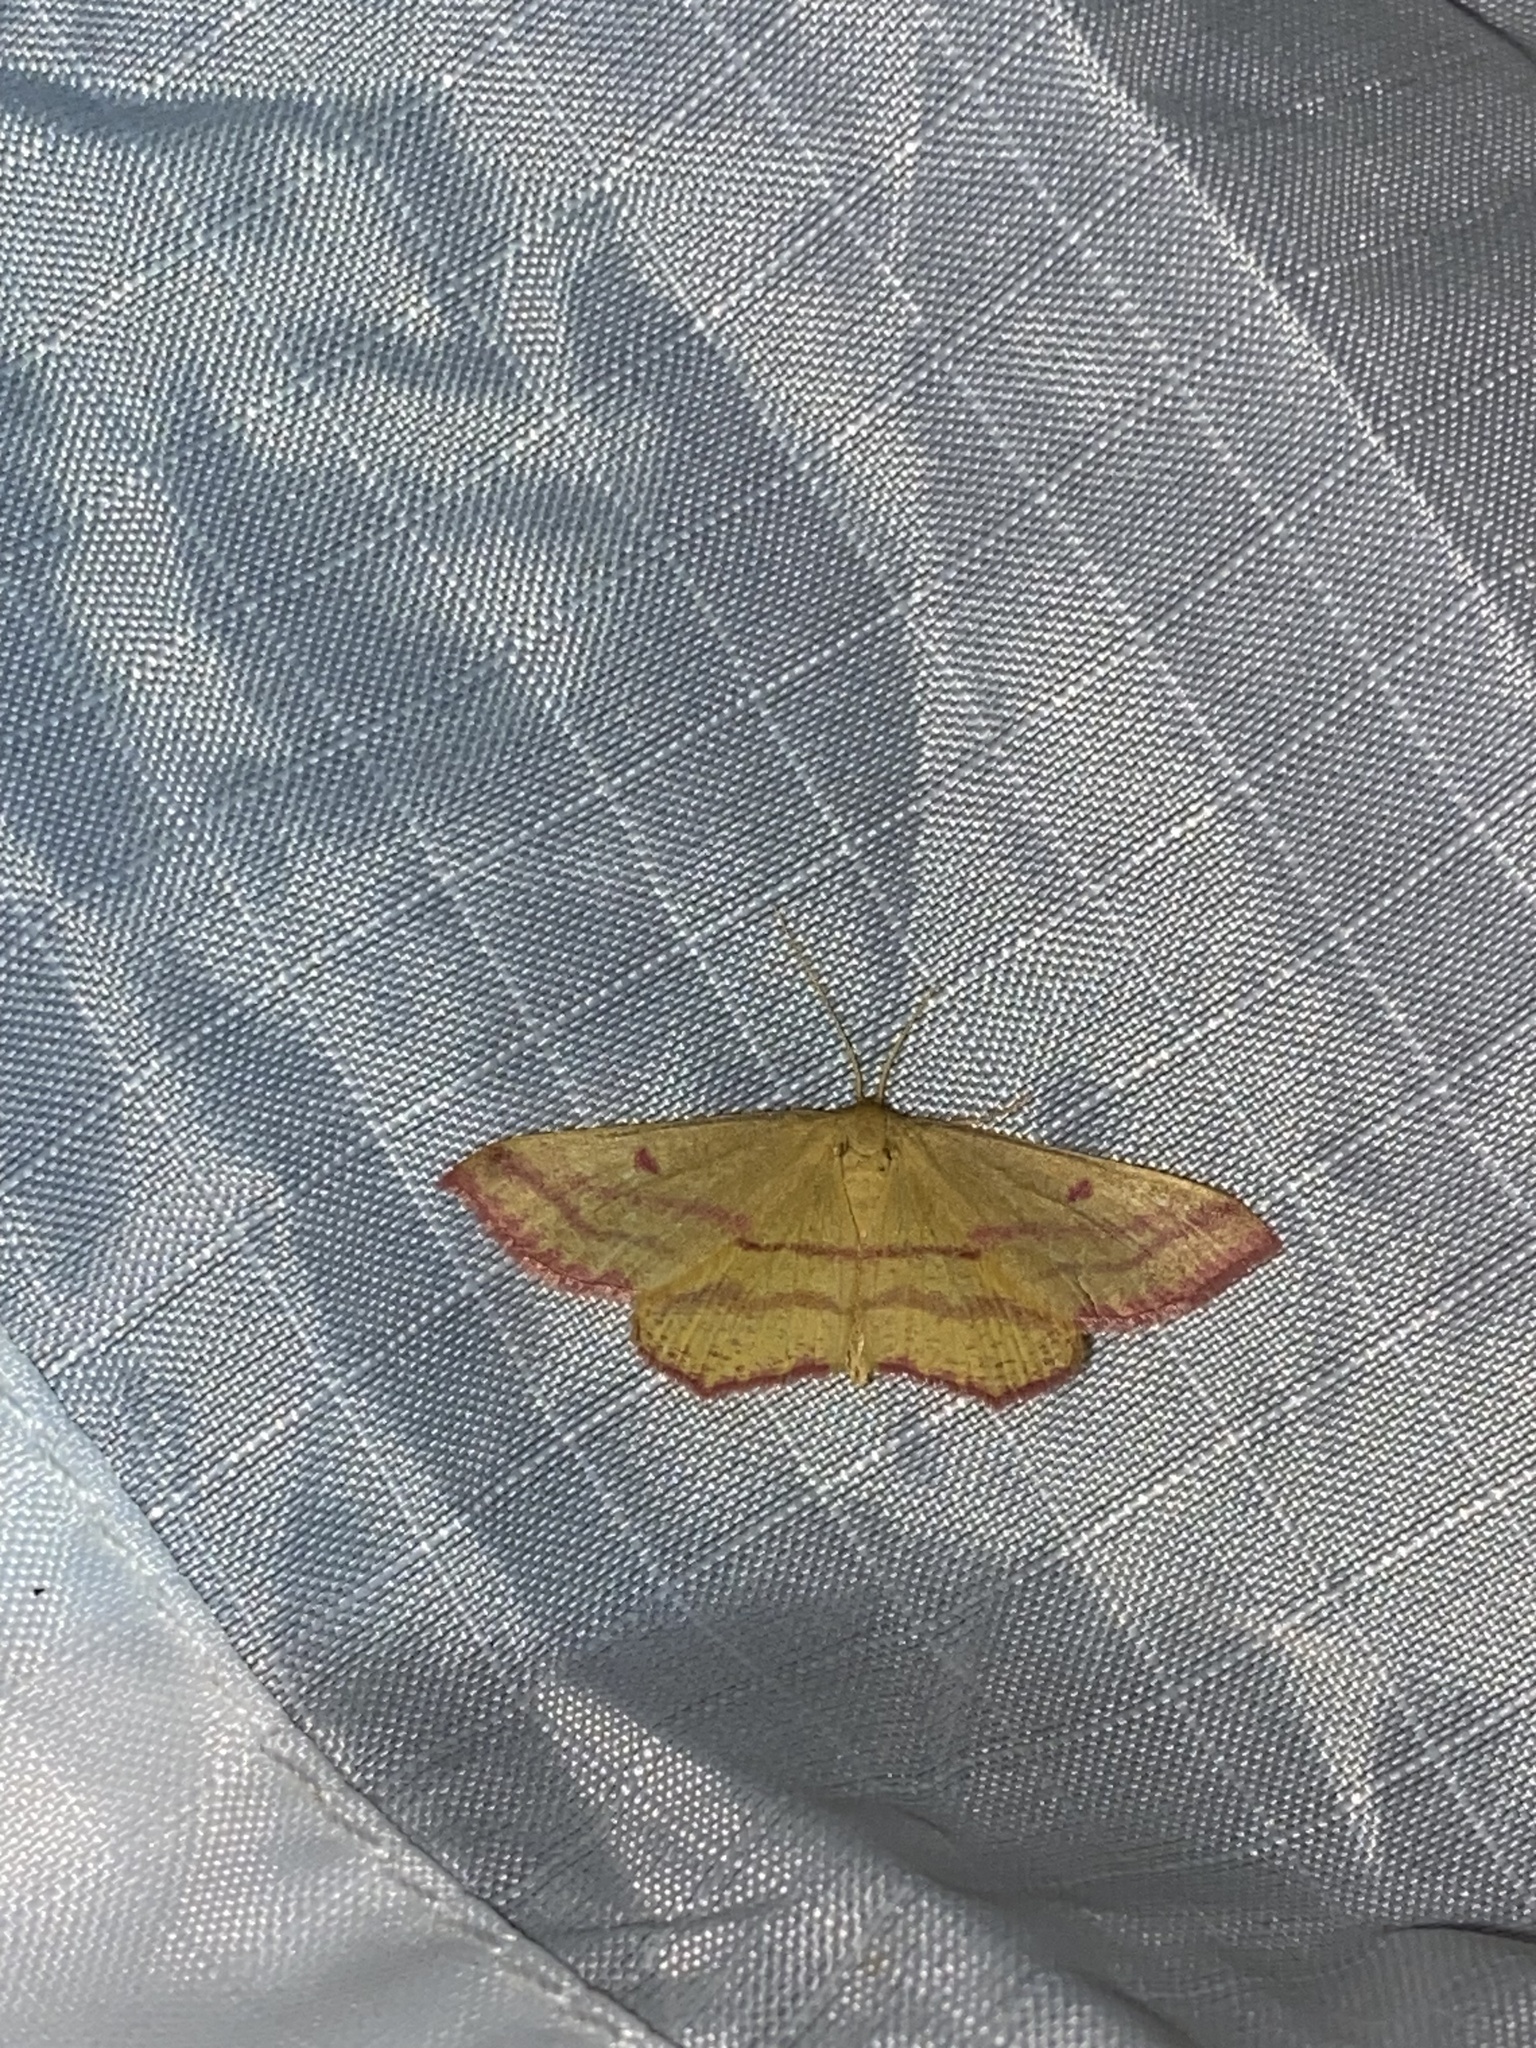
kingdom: Animalia
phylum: Arthropoda
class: Insecta
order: Lepidoptera
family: Geometridae
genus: Haematopis
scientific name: Haematopis grataria
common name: Chickweed geometer
